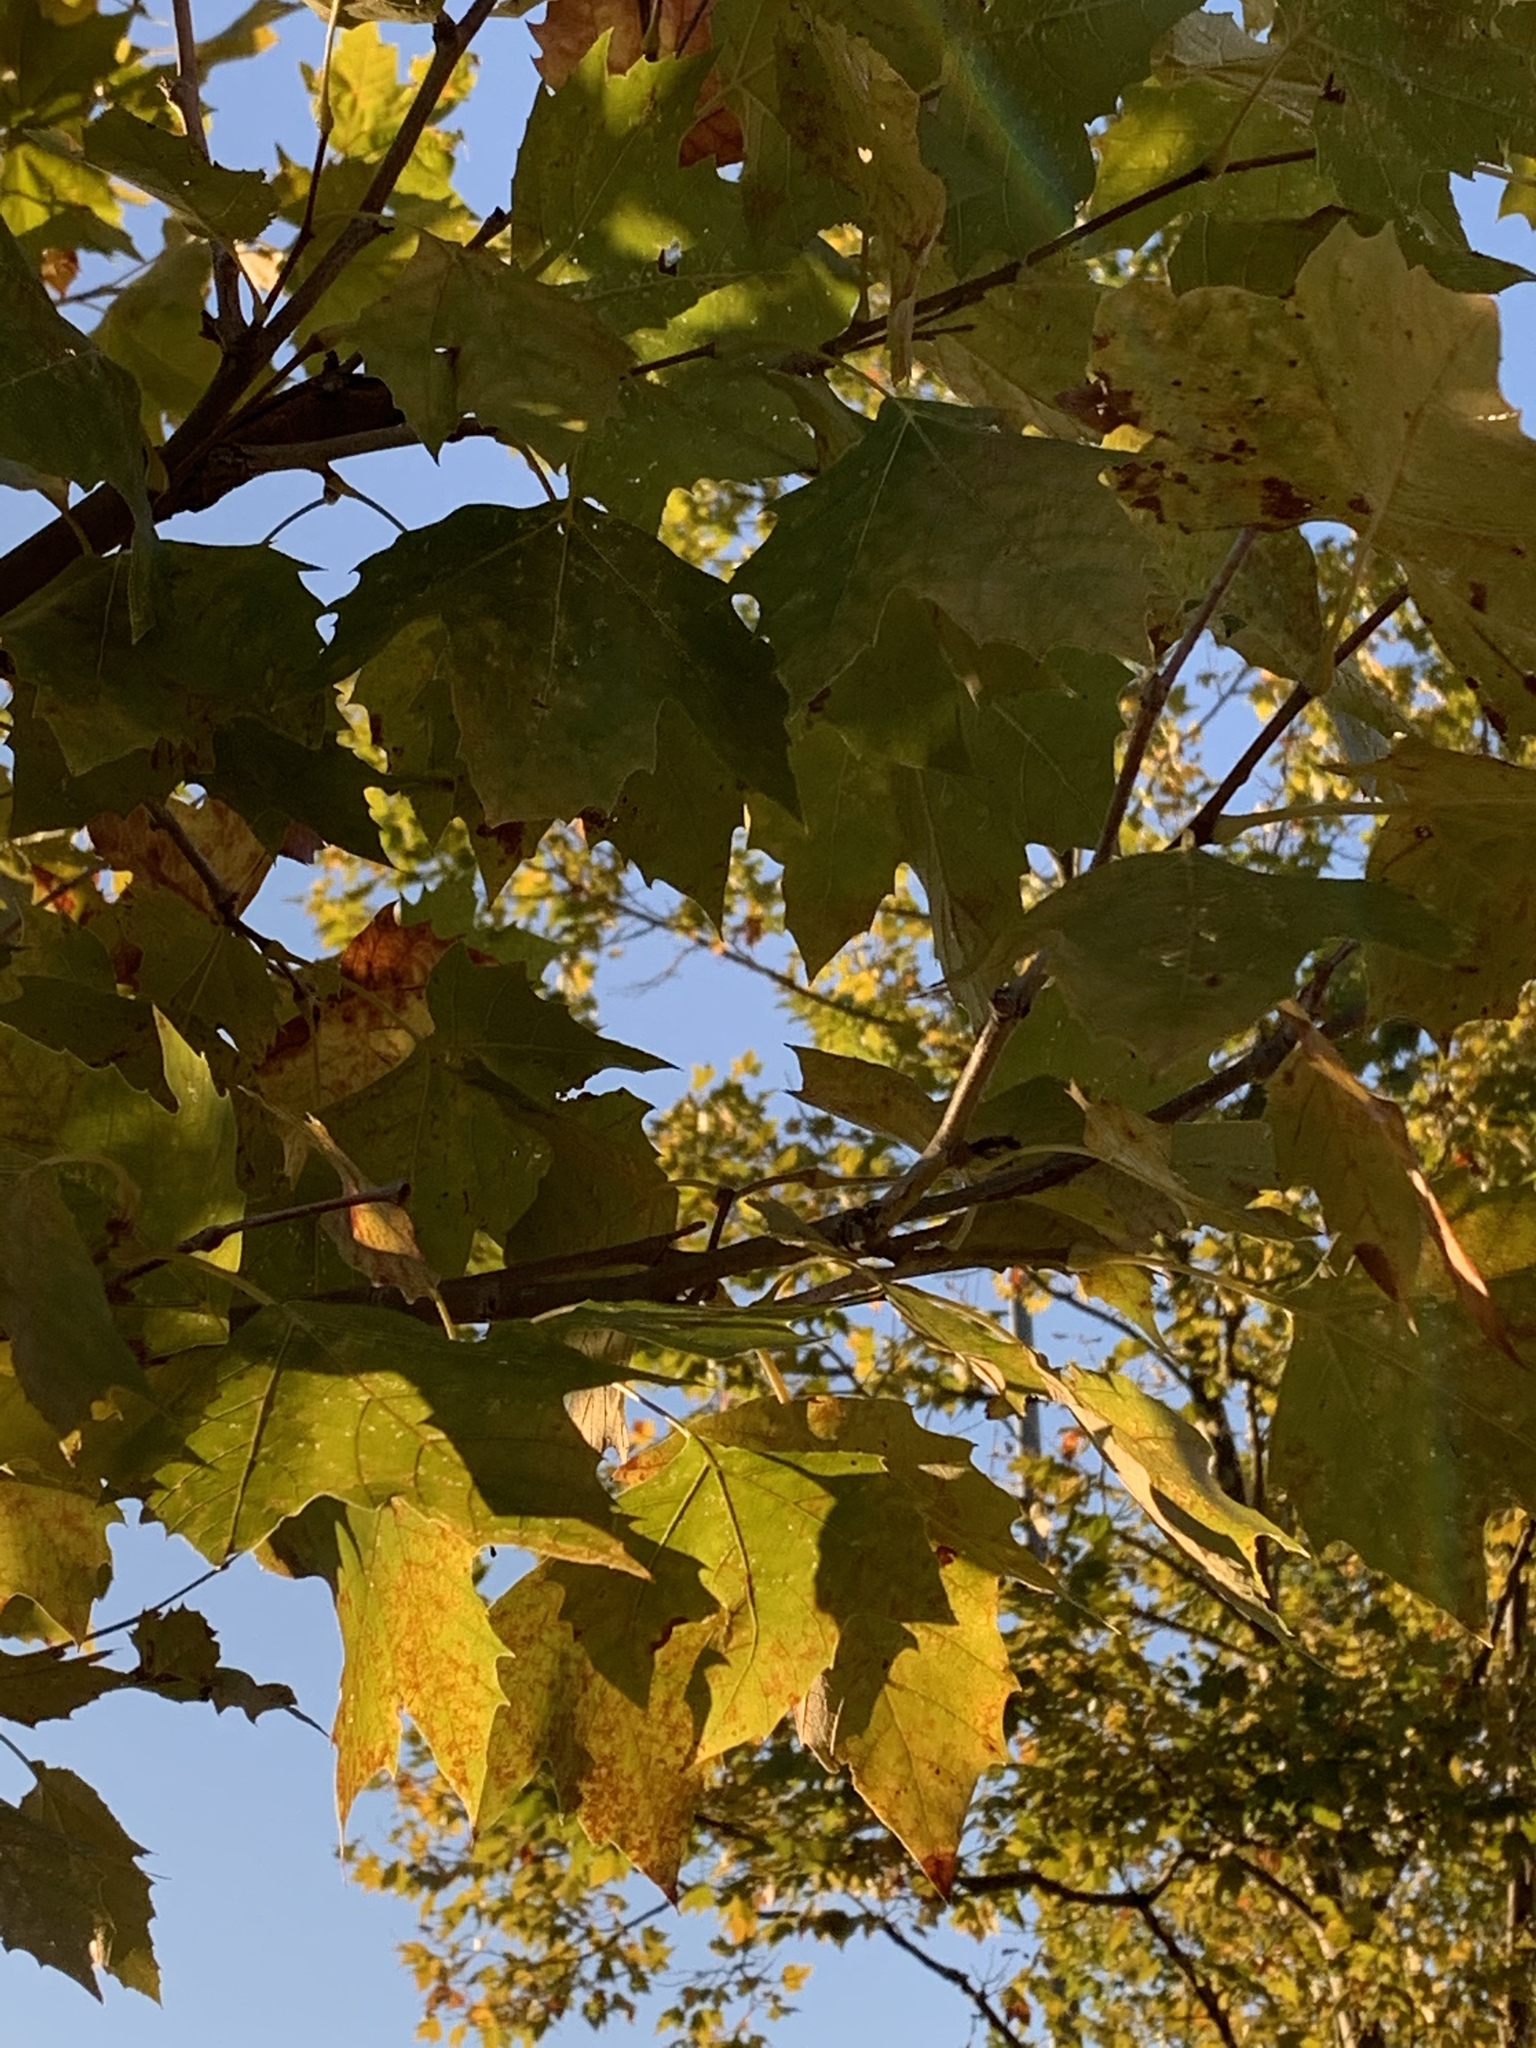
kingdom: Plantae
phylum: Tracheophyta
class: Magnoliopsida
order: Proteales
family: Platanaceae
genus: Platanus
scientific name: Platanus occidentalis
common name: American sycamore
